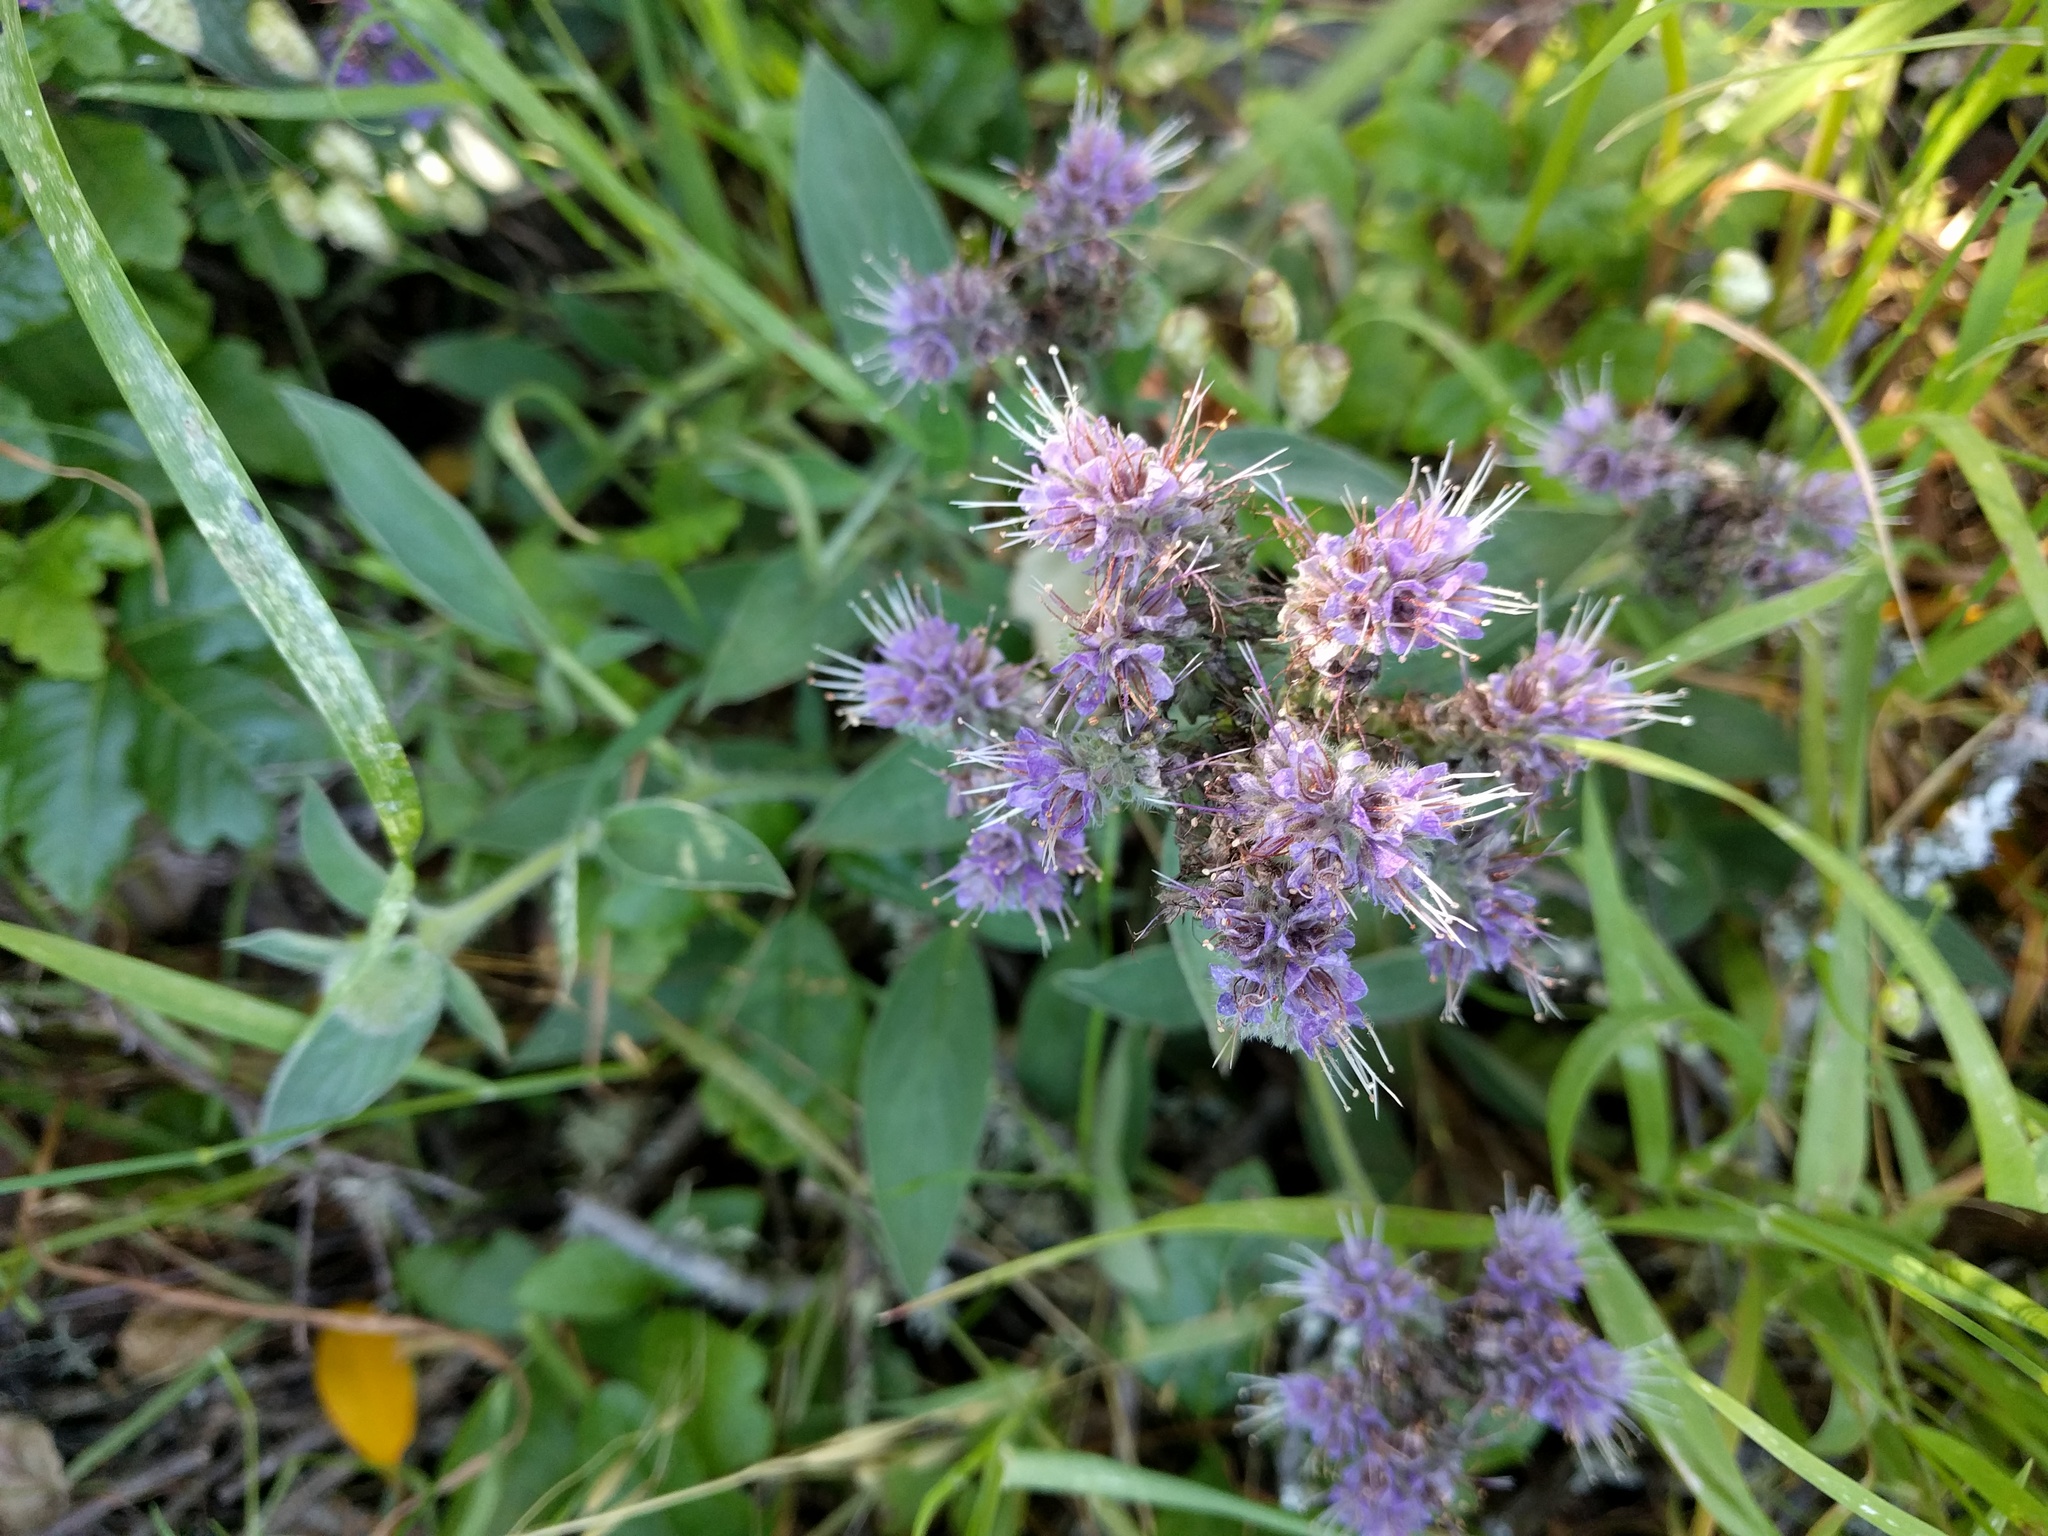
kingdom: Plantae
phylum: Tracheophyta
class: Magnoliopsida
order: Boraginales
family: Hydrophyllaceae
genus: Phacelia
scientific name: Phacelia californica
